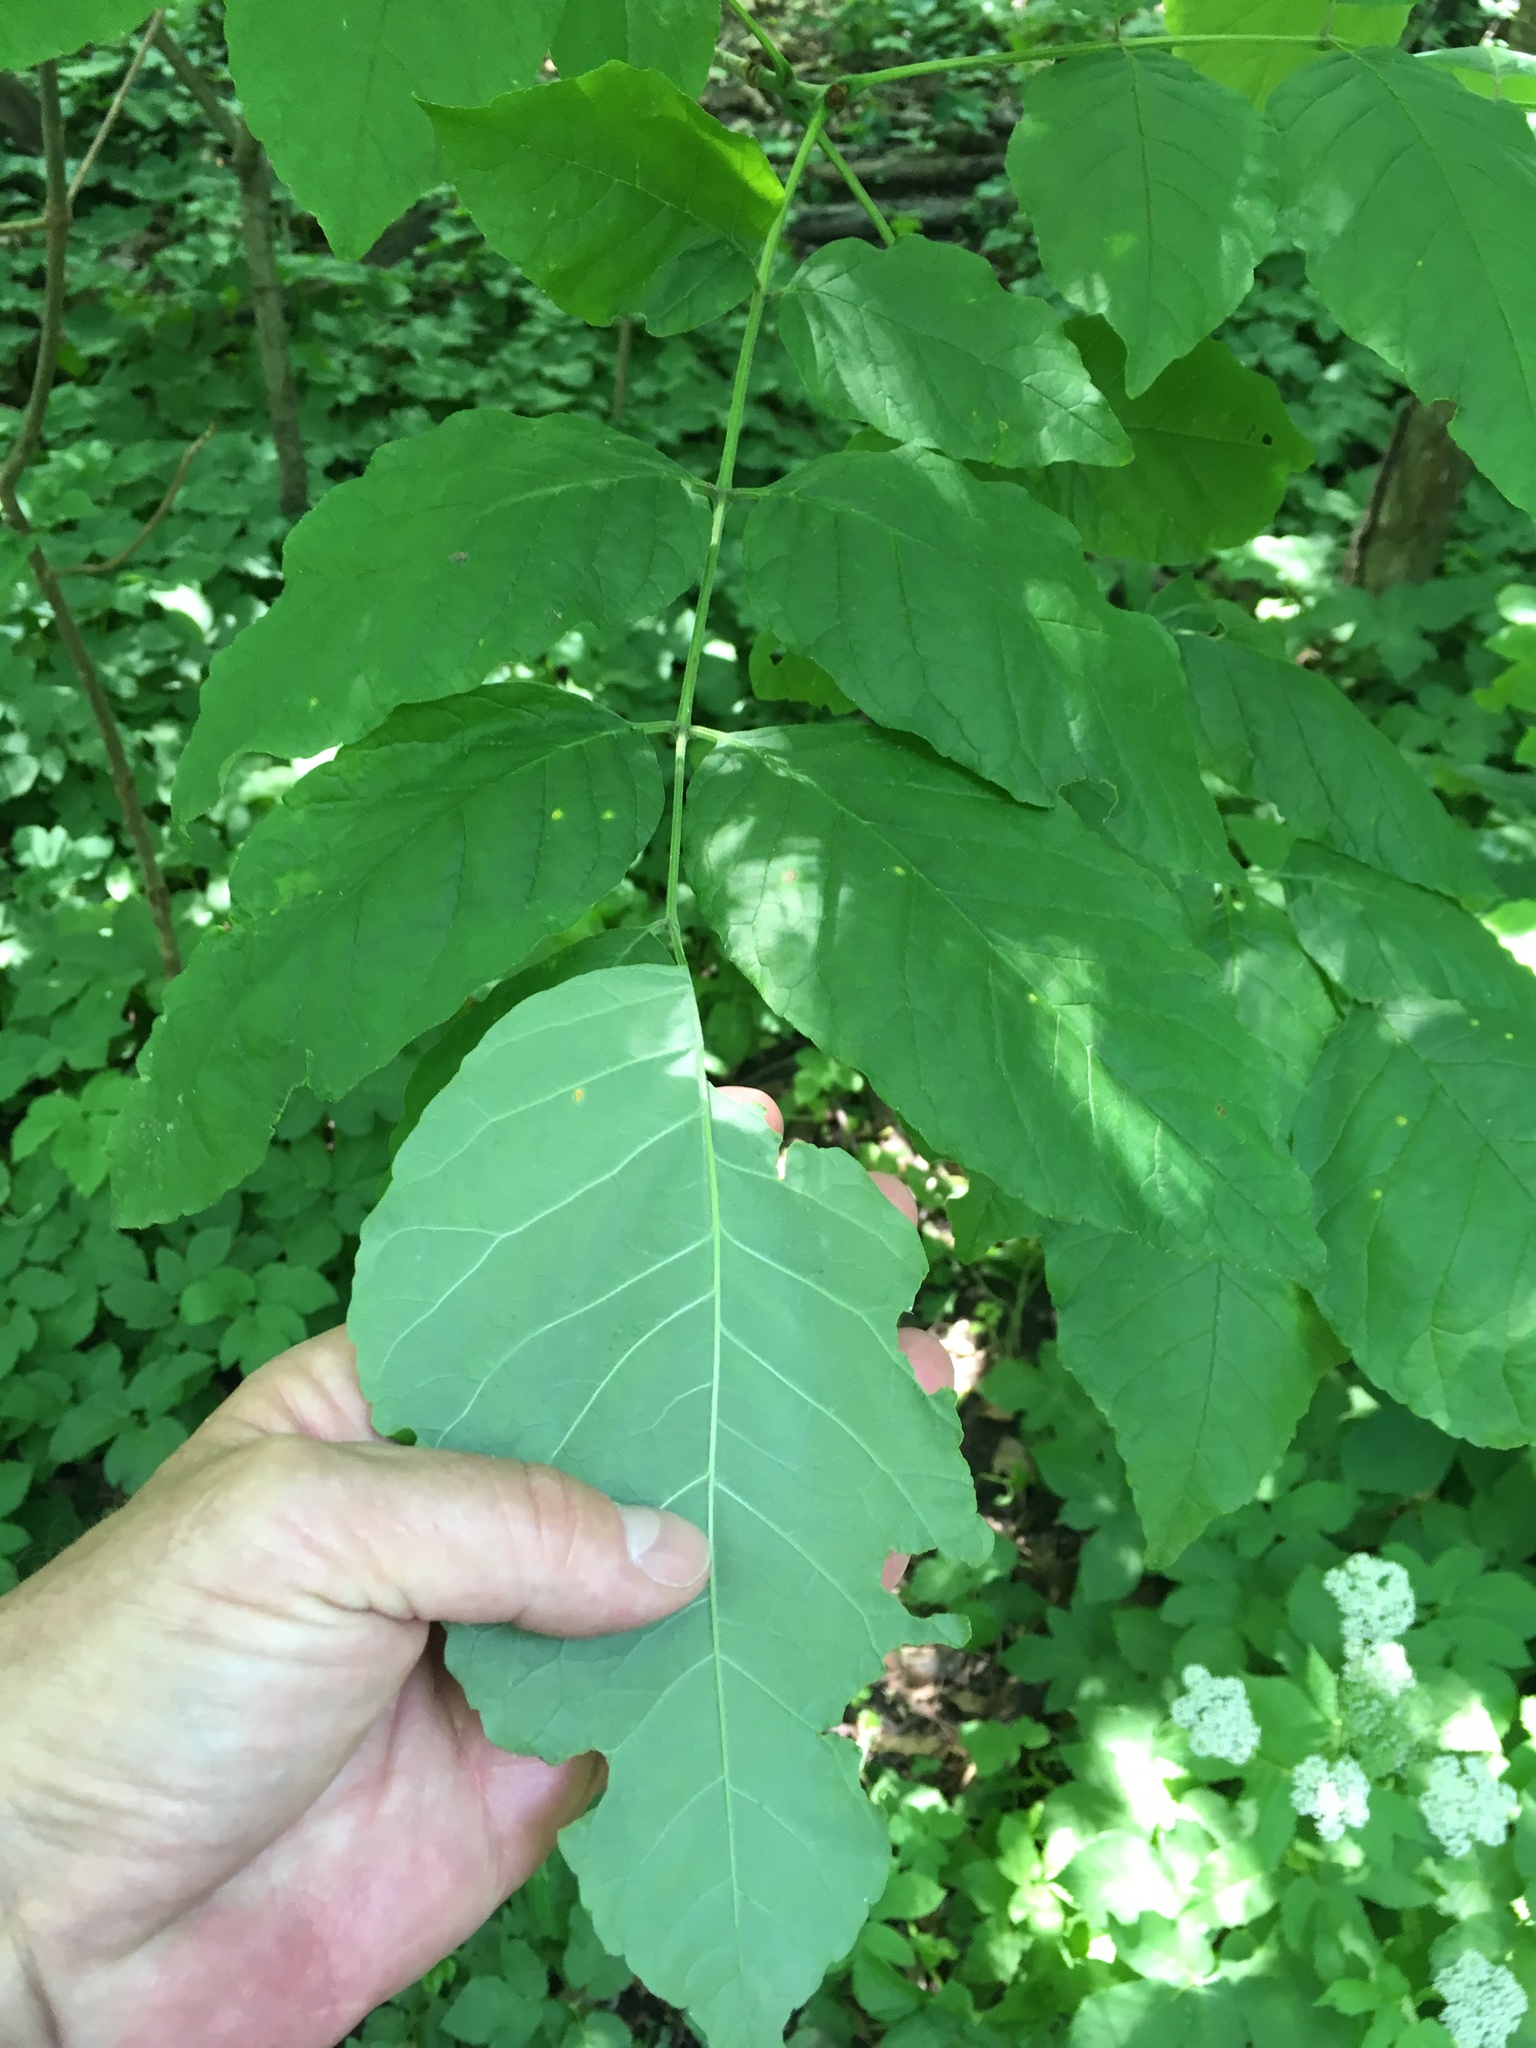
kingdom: Plantae
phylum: Tracheophyta
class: Magnoliopsida
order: Lamiales
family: Oleaceae
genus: Fraxinus
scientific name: Fraxinus americana
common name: White ash
